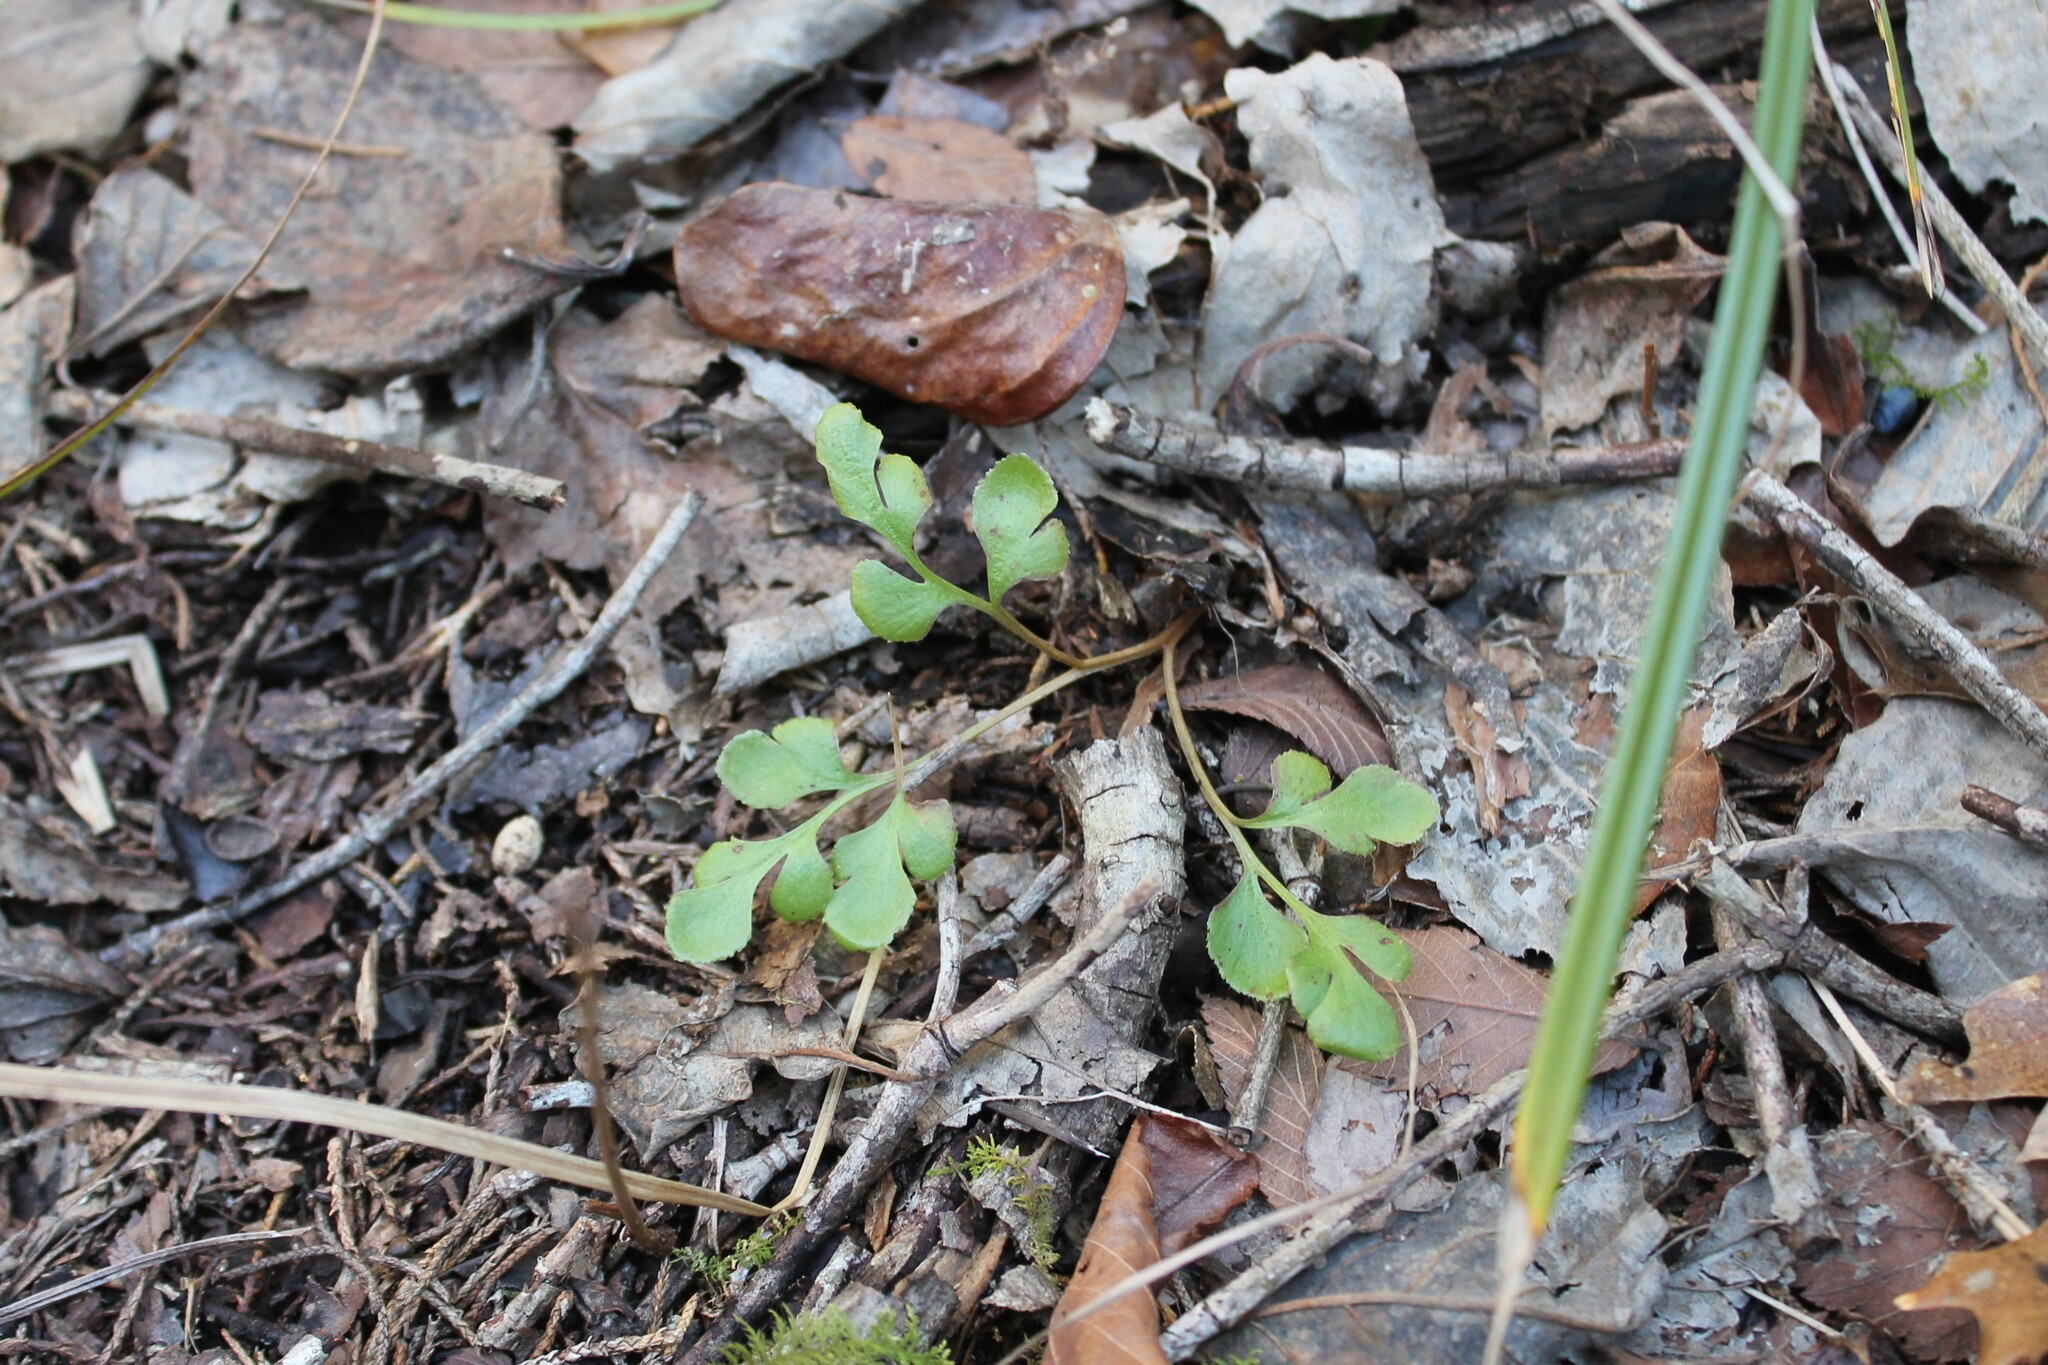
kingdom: Plantae
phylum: Tracheophyta
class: Polypodiopsida
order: Ophioglossales
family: Ophioglossaceae
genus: Sceptridium
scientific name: Sceptridium jenmanii
